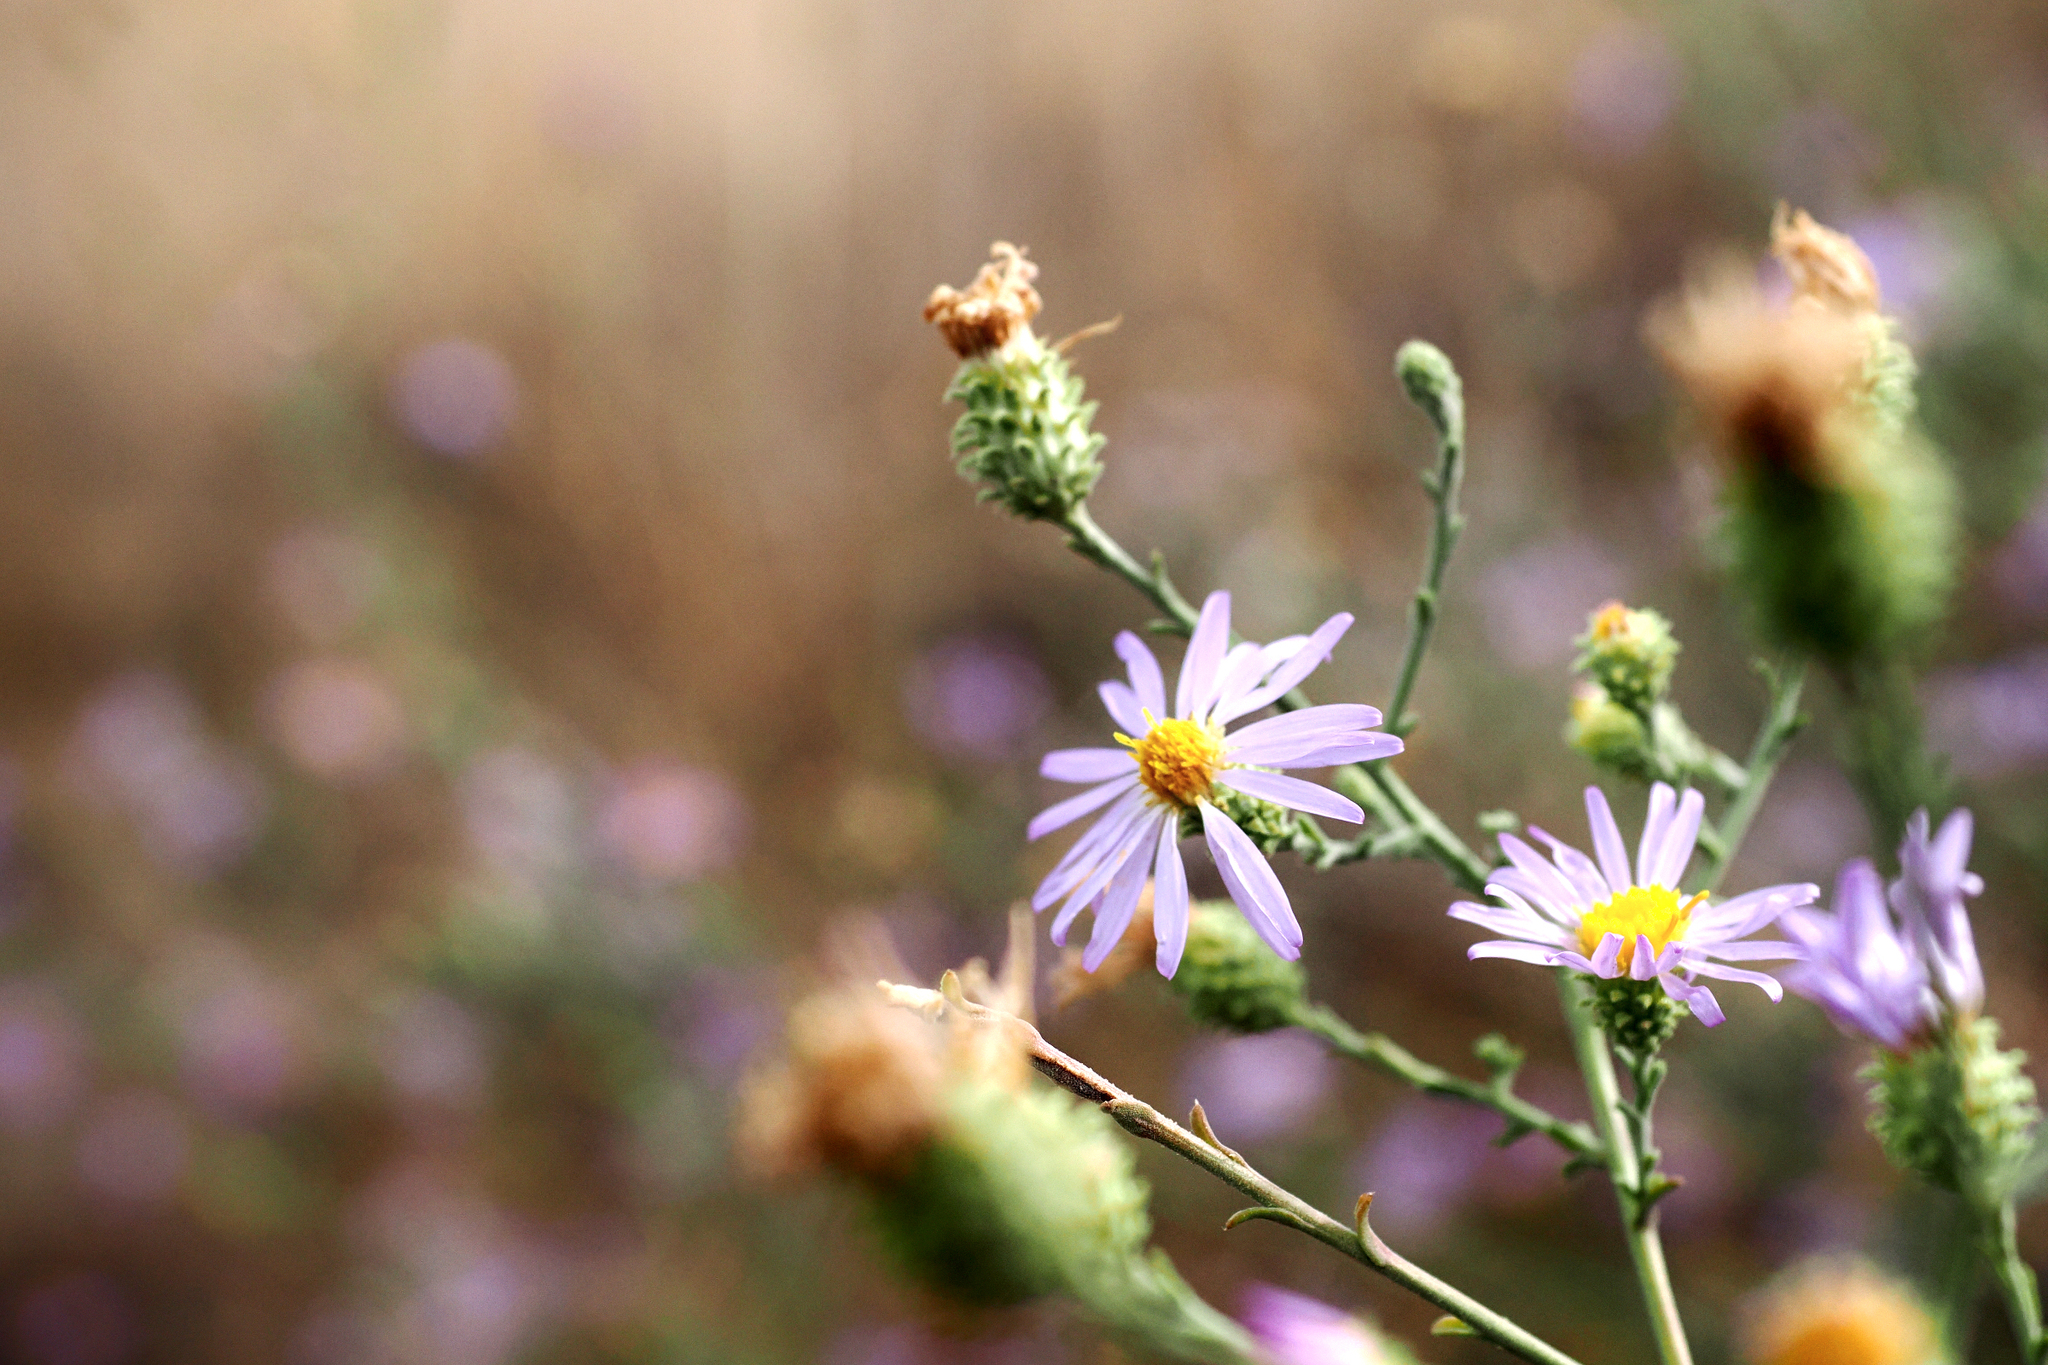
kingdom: Plantae
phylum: Tracheophyta
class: Magnoliopsida
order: Asterales
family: Asteraceae
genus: Dieteria
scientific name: Dieteria canescens
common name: Hoary-aster
